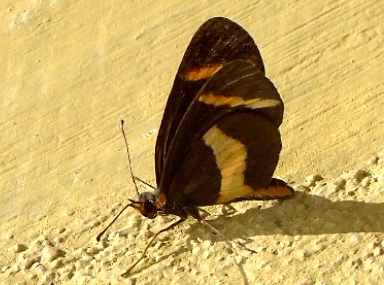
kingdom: Animalia
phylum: Arthropoda
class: Insecta
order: Lepidoptera
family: Nymphalidae
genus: Microtia
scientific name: Microtia elva
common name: Elf
